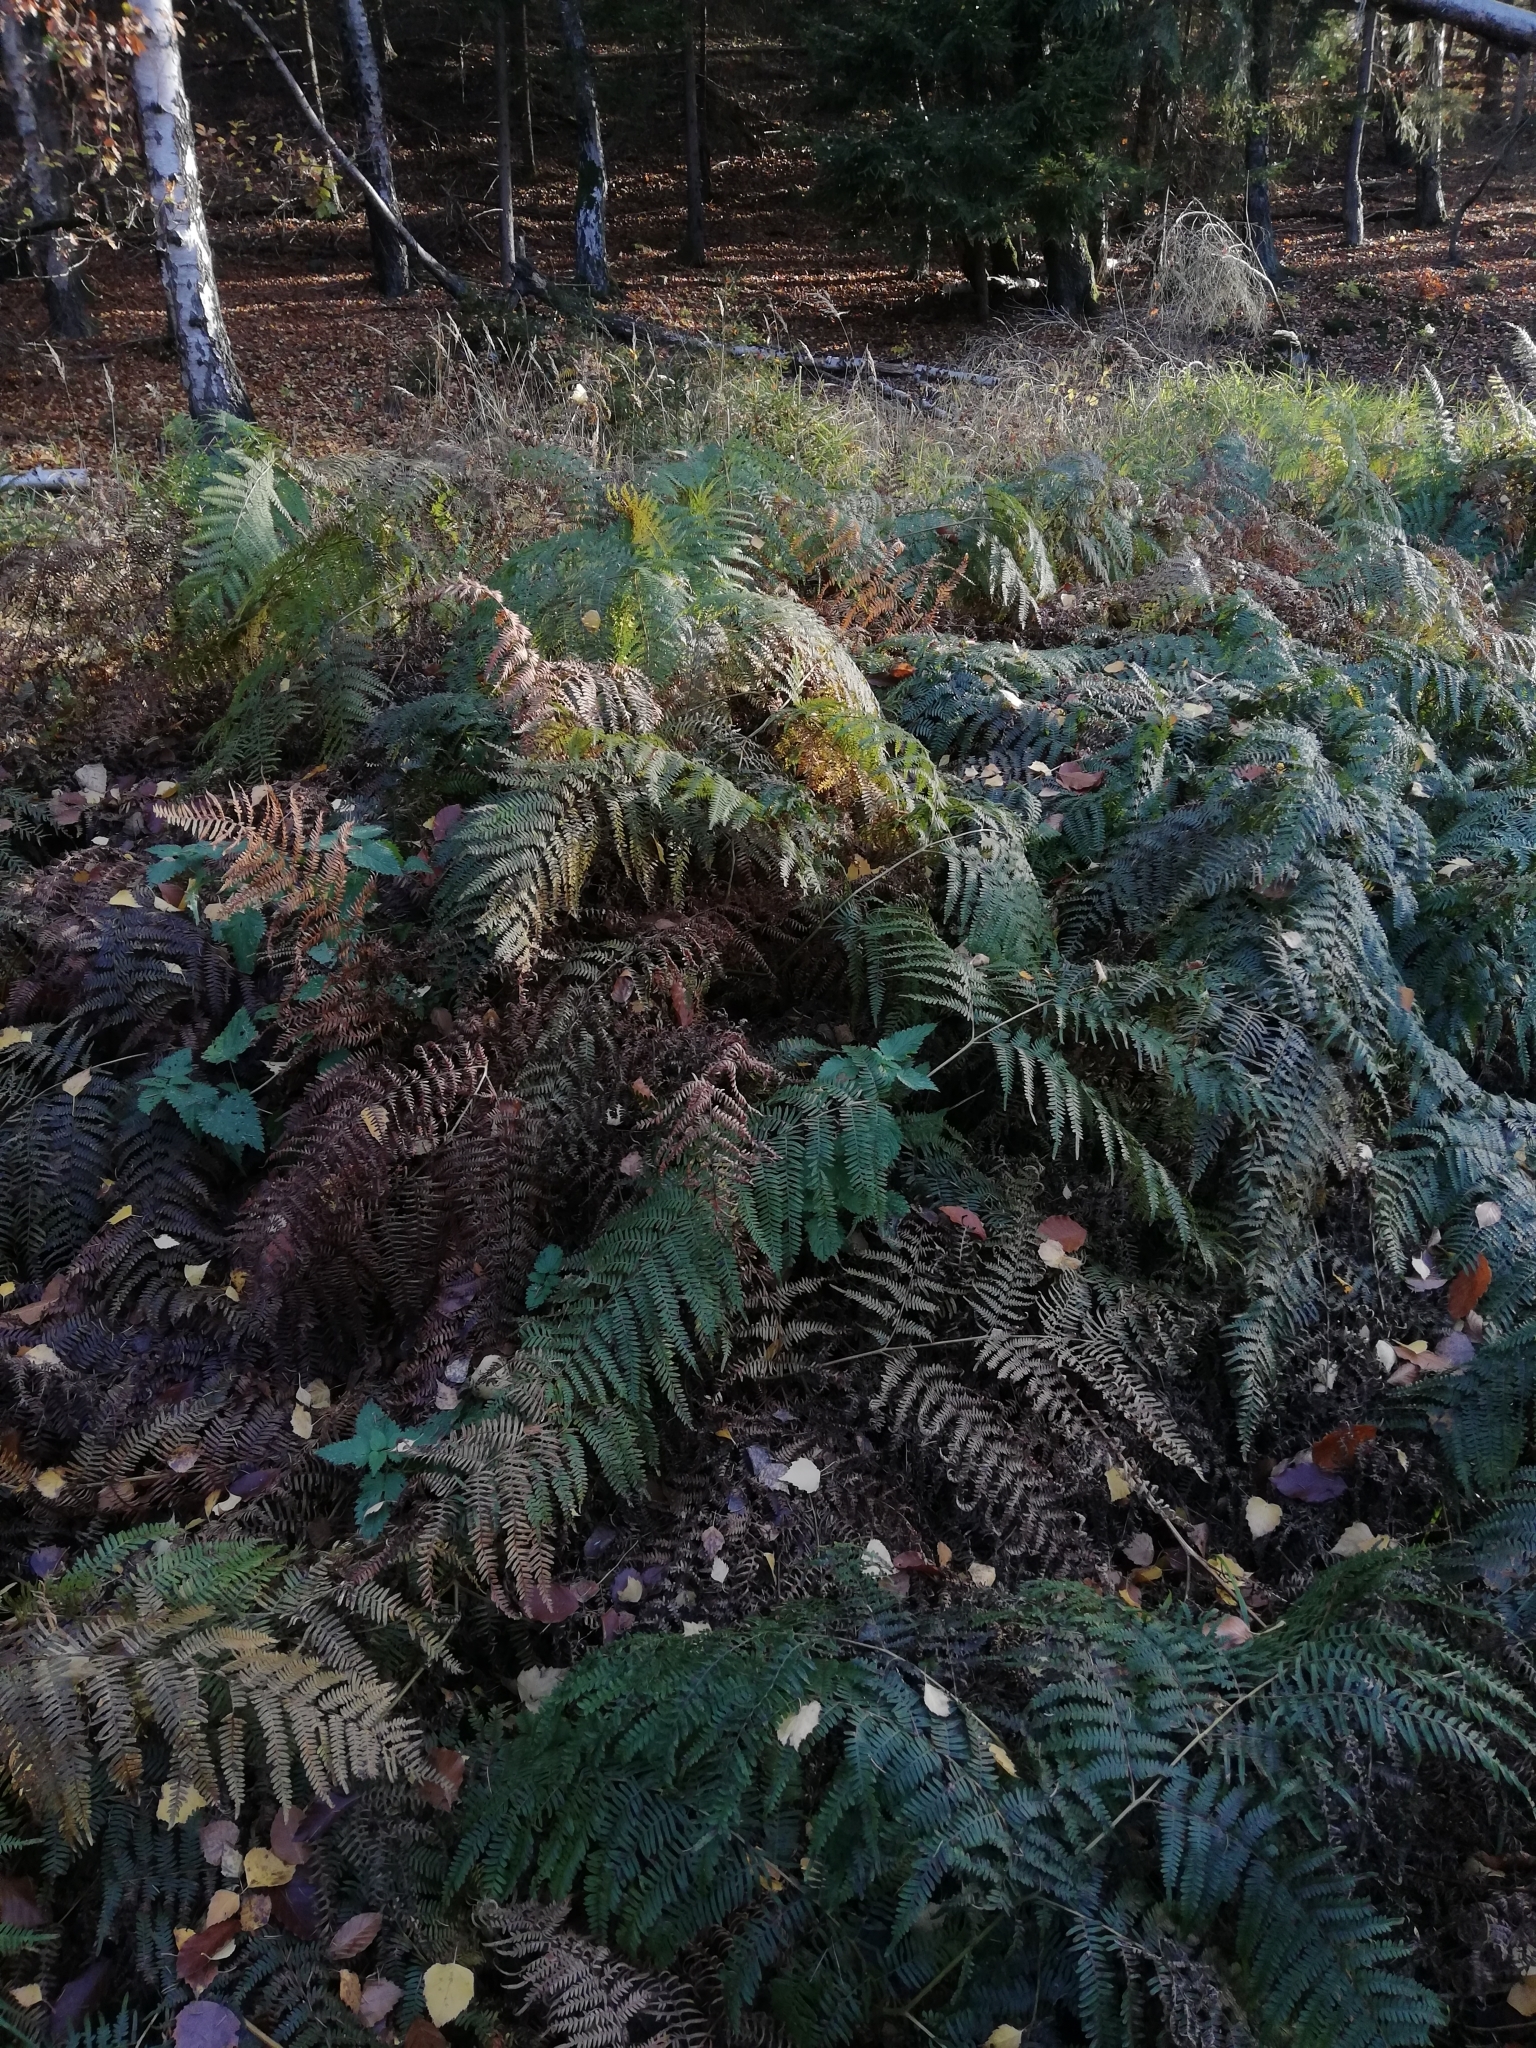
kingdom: Plantae
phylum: Tracheophyta
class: Polypodiopsida
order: Polypodiales
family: Dennstaedtiaceae
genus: Pteridium
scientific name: Pteridium aquilinum
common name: Bracken
